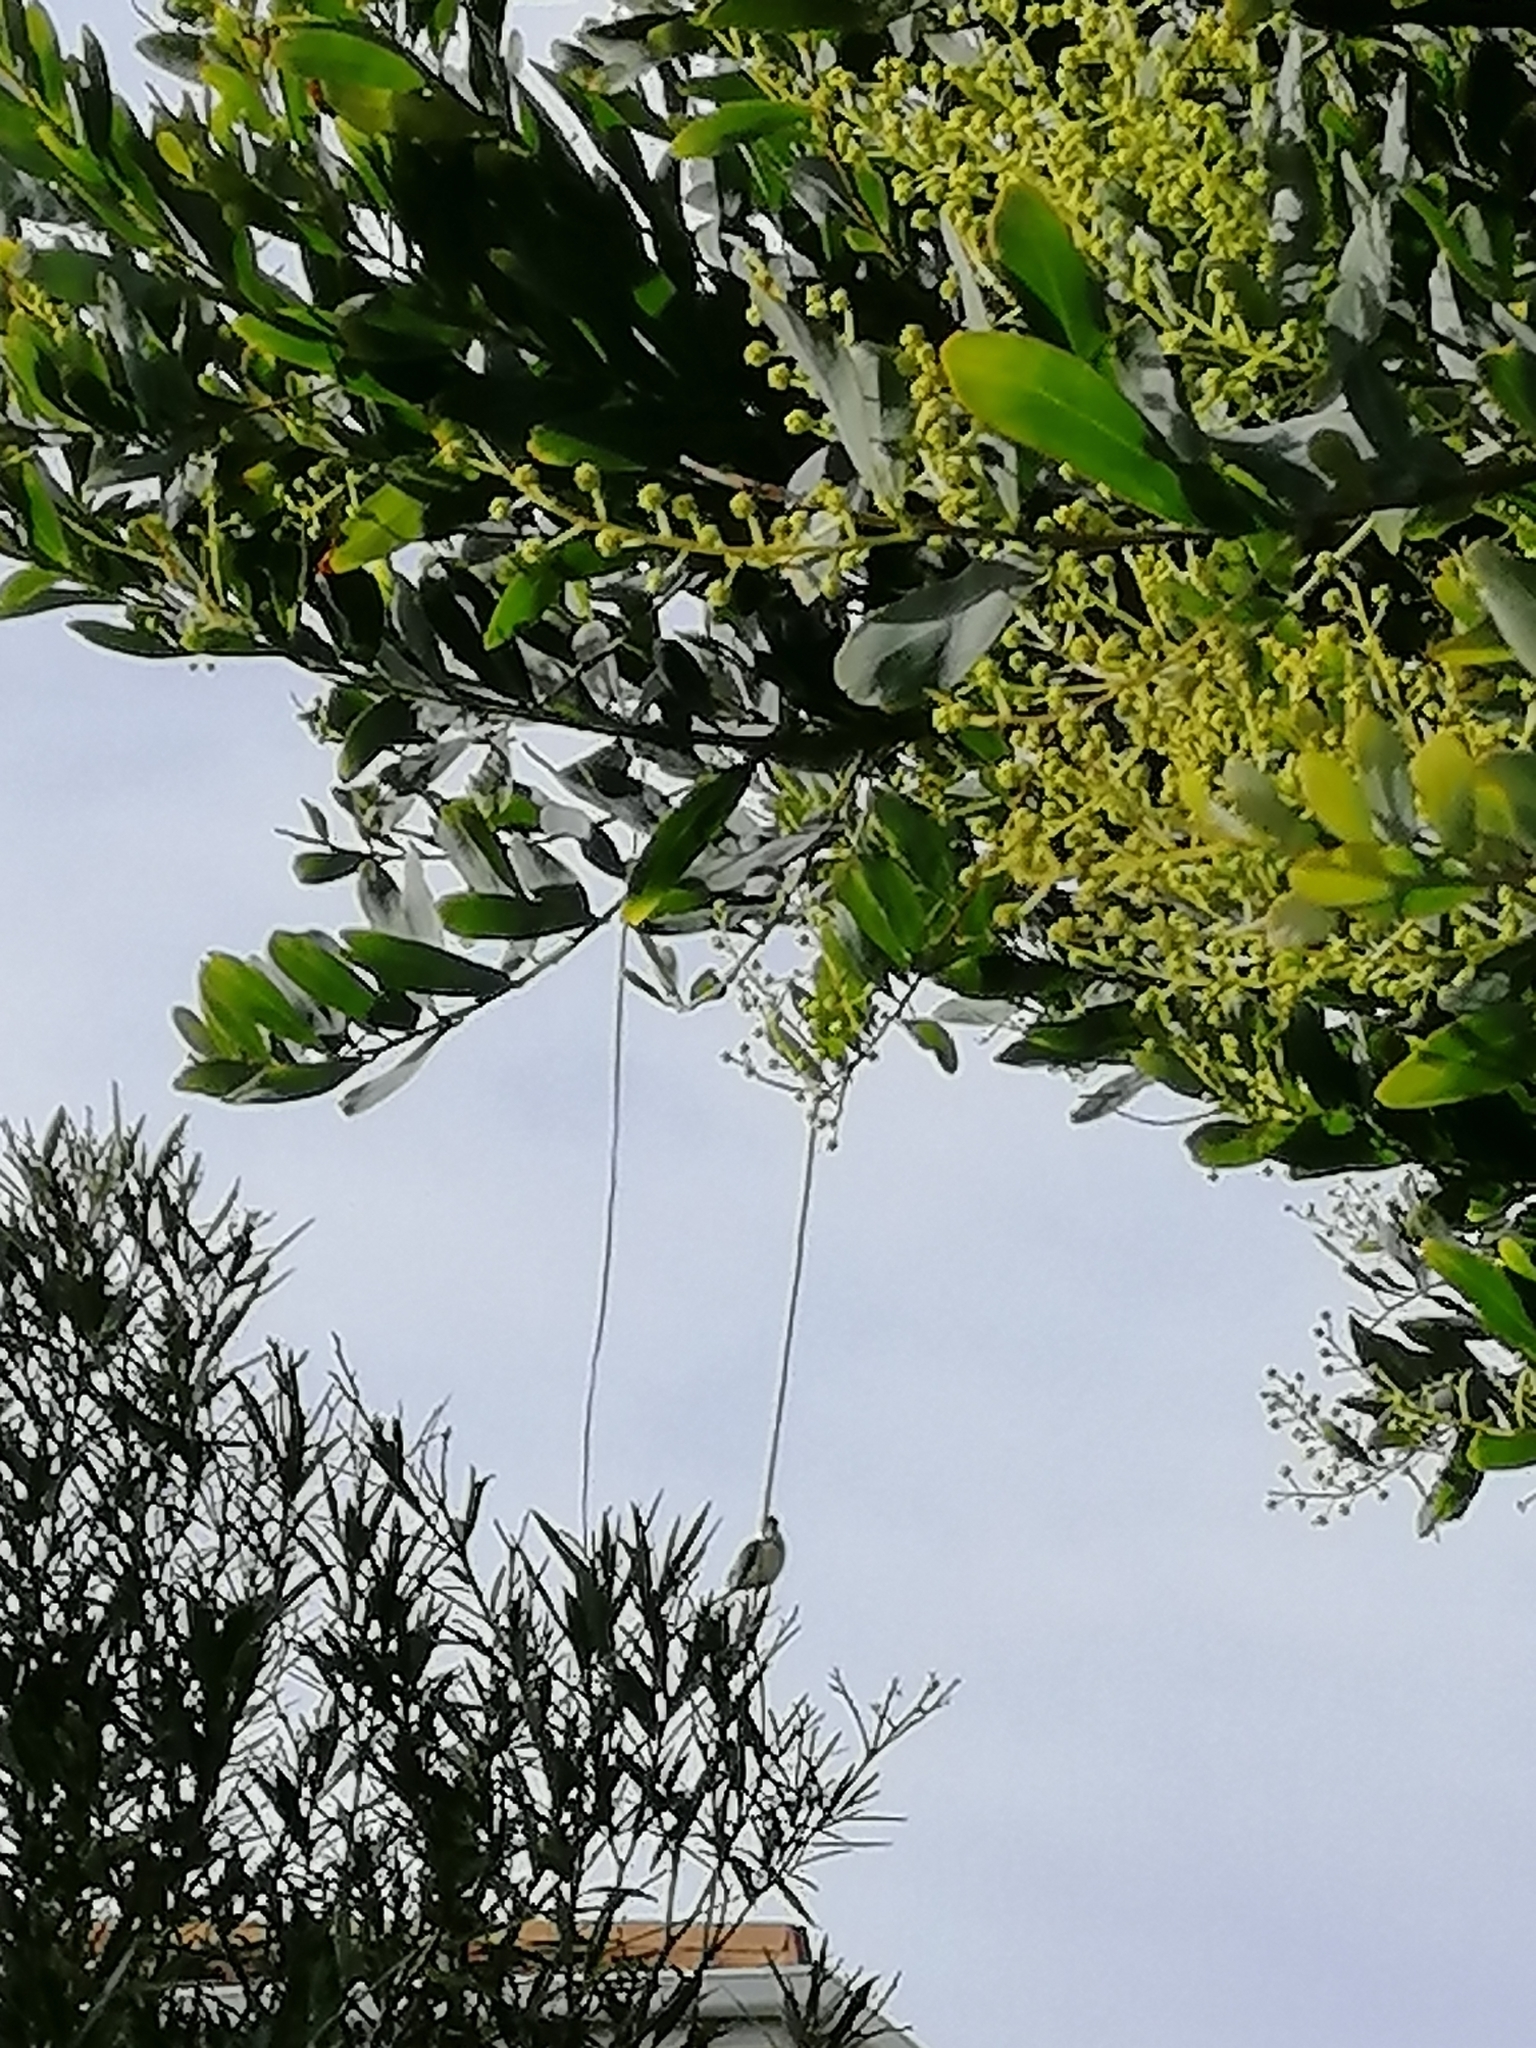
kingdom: Animalia
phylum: Chordata
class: Aves
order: Coraciiformes
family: Alcedinidae
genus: Todiramphus
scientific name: Todiramphus sanctus
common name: Sacred kingfisher
